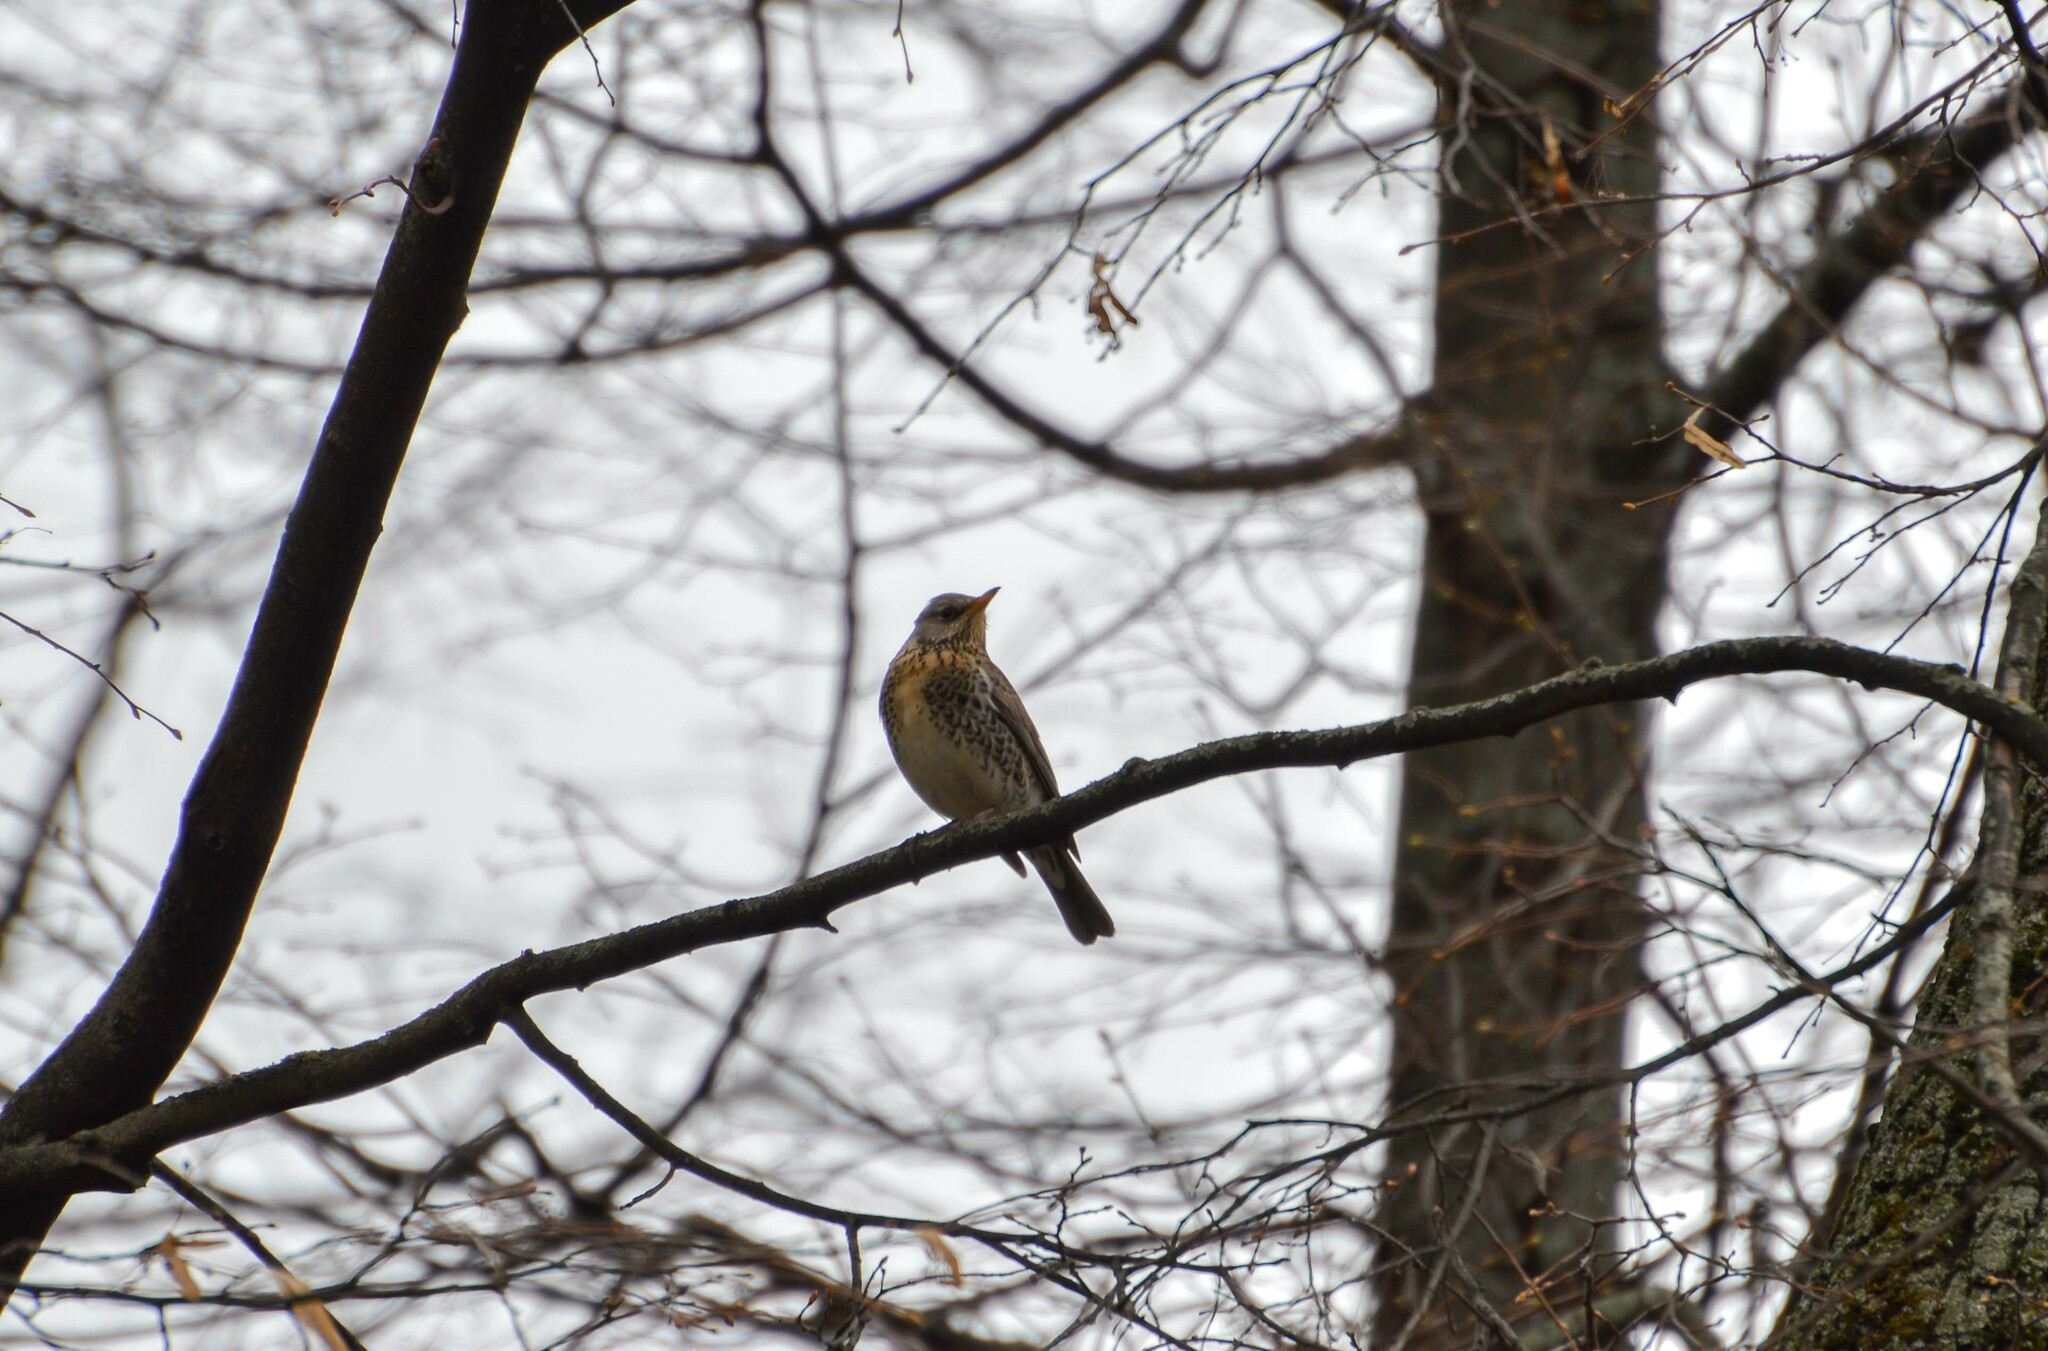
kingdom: Animalia
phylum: Chordata
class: Aves
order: Passeriformes
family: Turdidae
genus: Turdus
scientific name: Turdus pilaris
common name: Fieldfare
